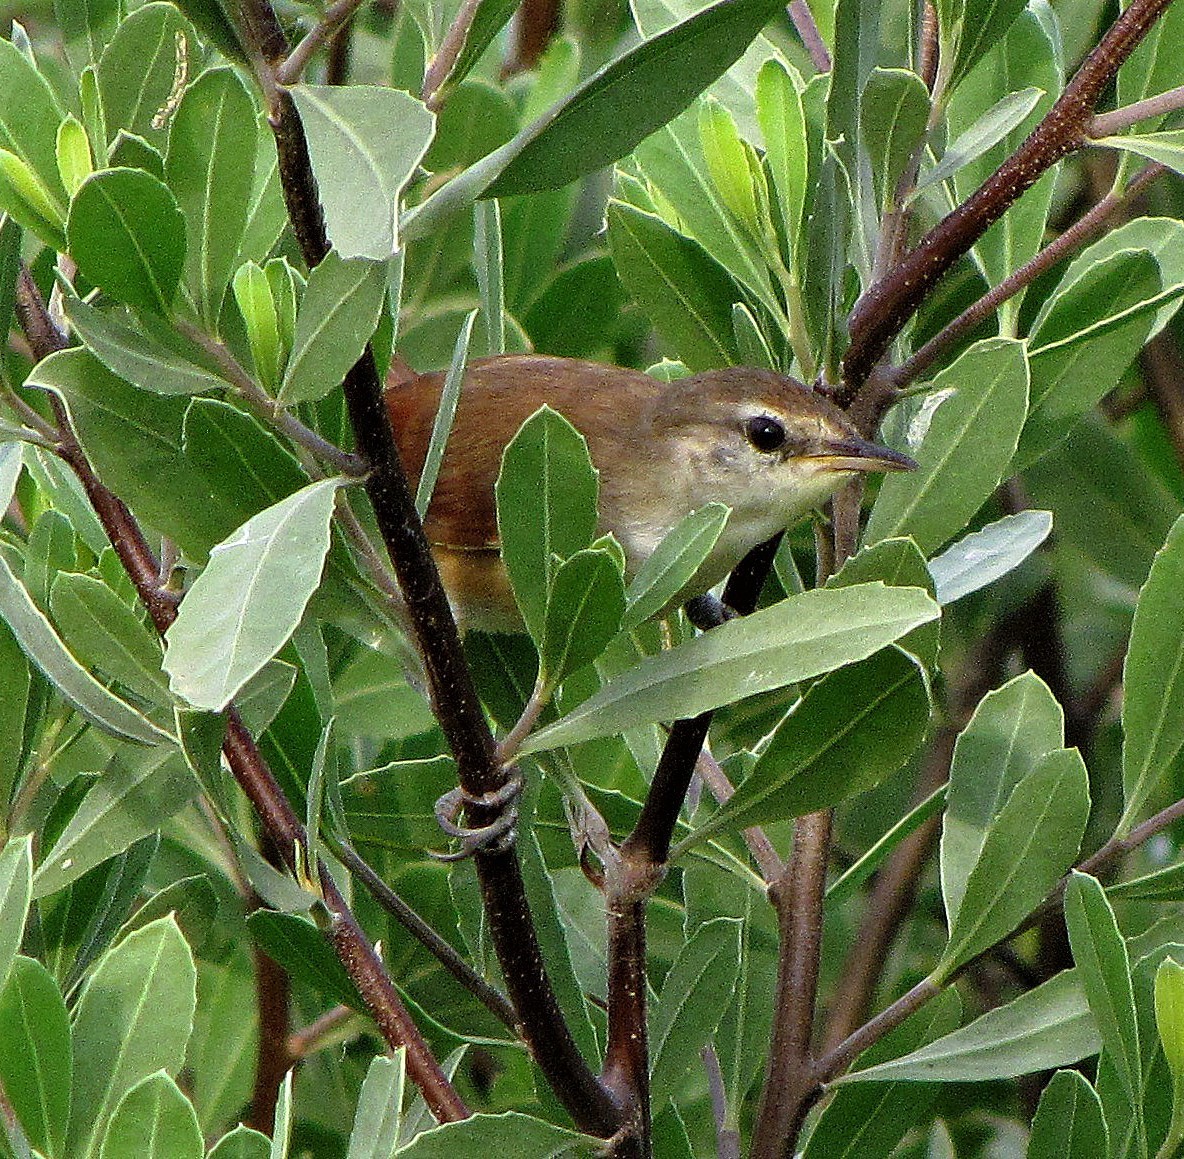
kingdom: Animalia
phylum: Chordata
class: Aves
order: Passeriformes
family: Furnariidae
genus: Certhiaxis
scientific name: Certhiaxis cinnamomeus
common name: Yellow-chinned spinetail
